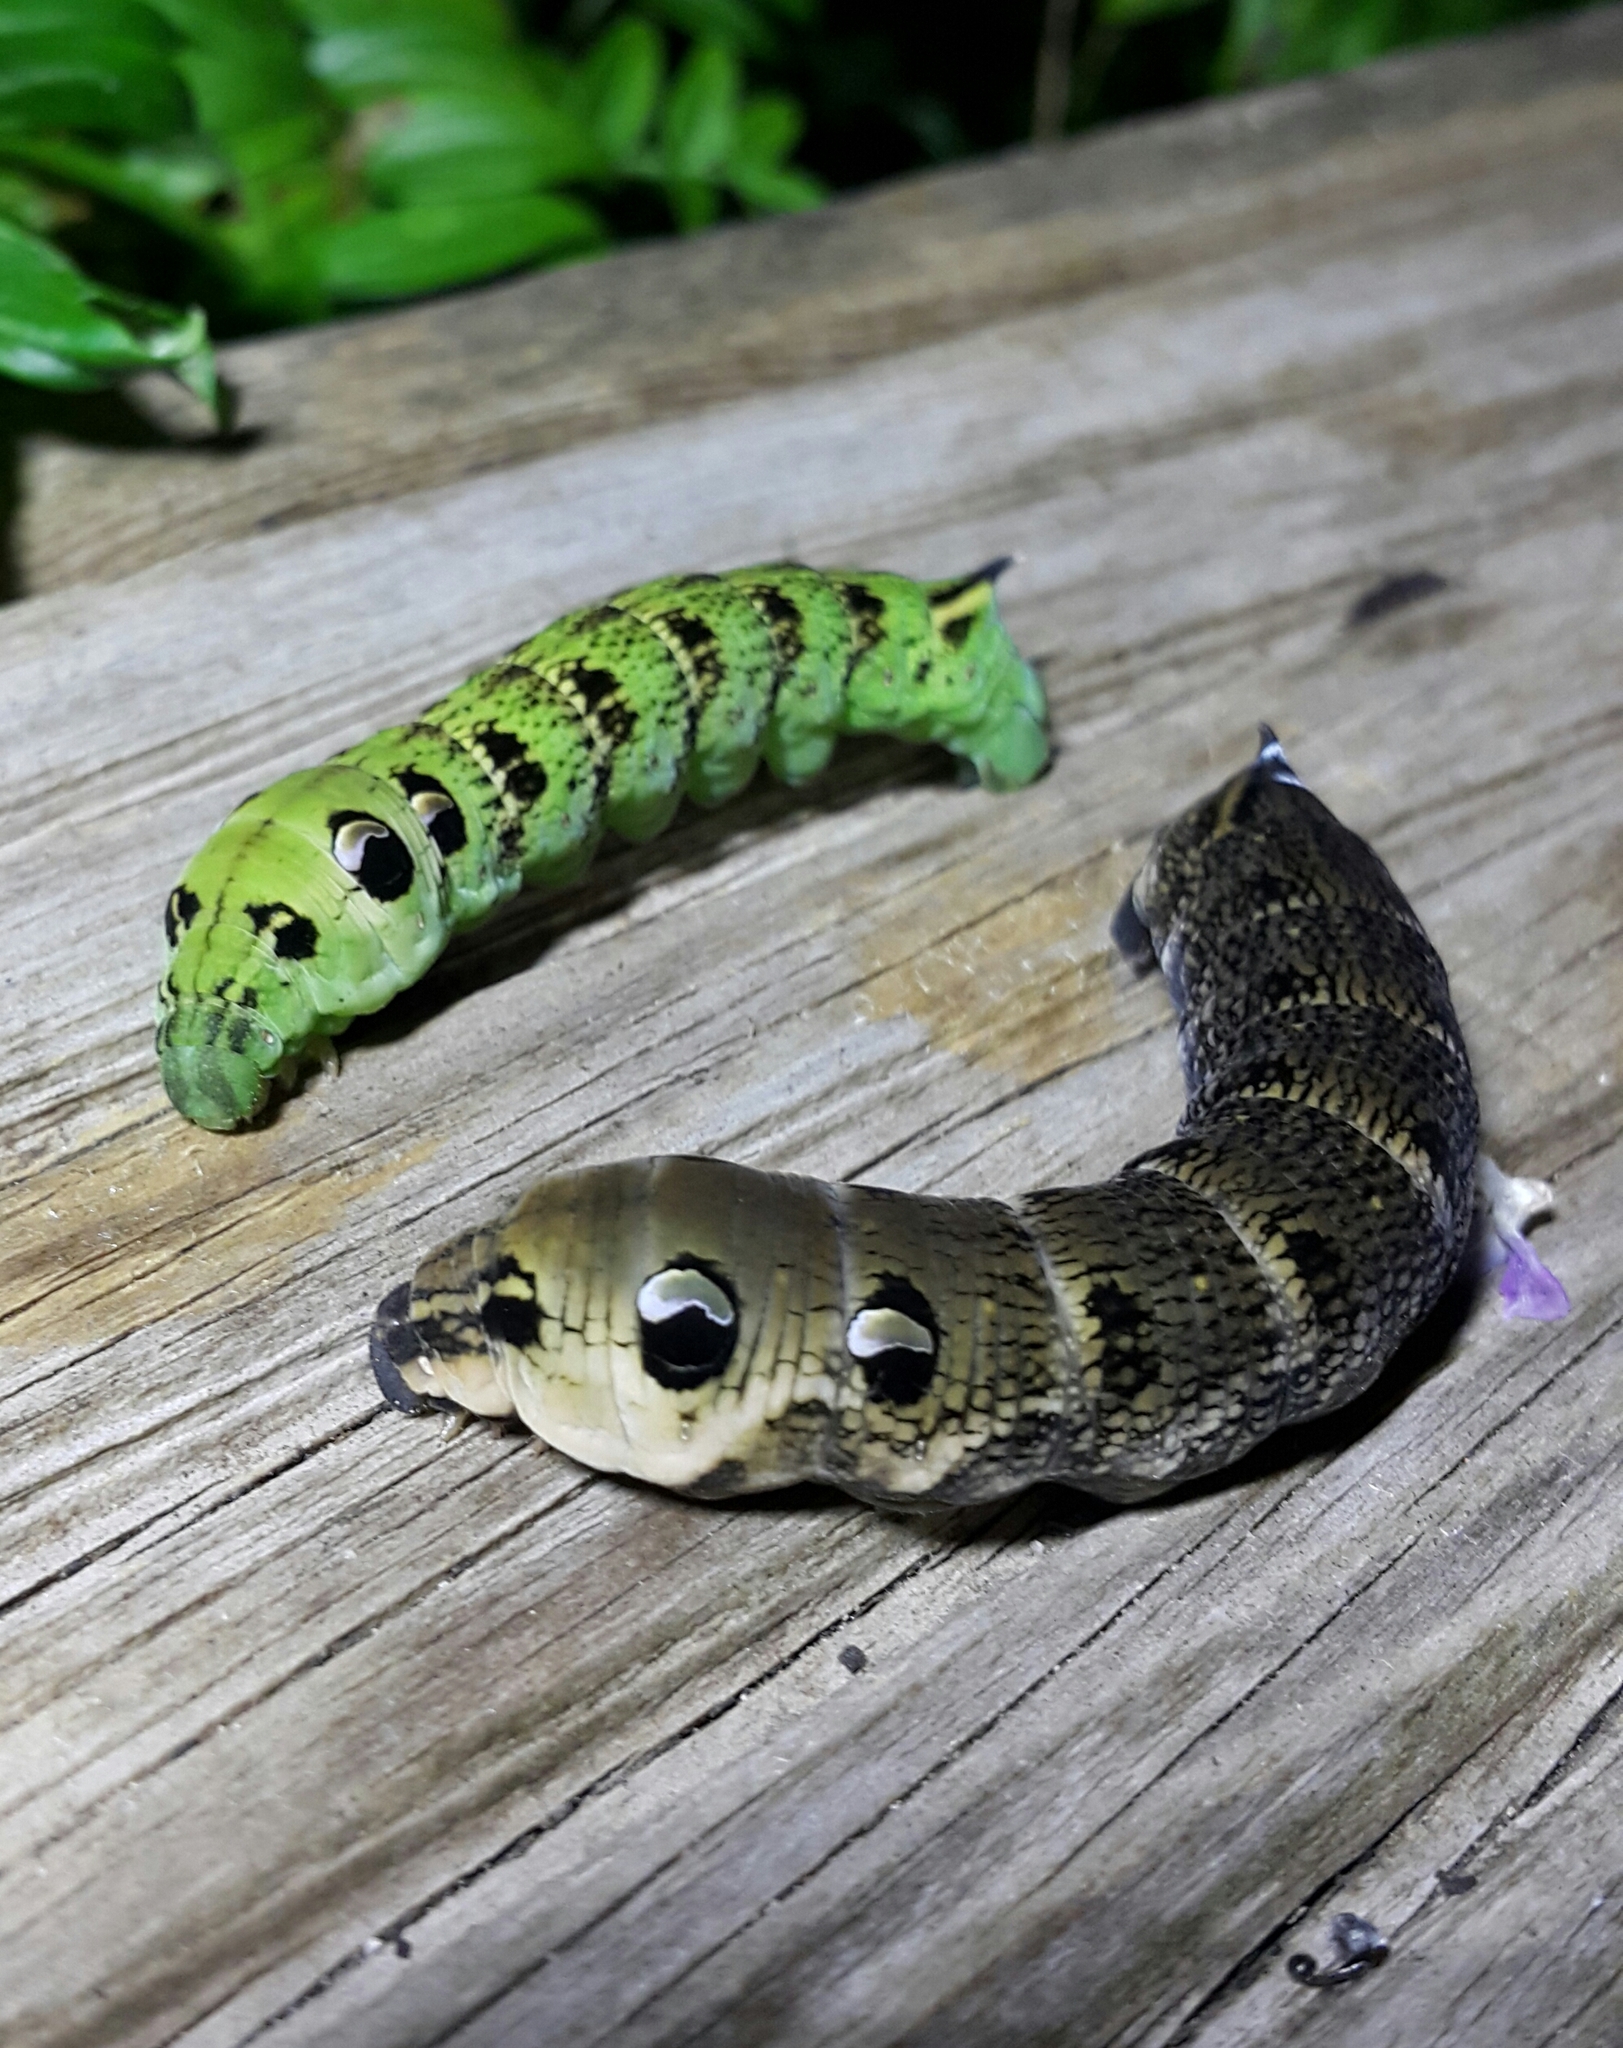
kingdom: Animalia
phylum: Arthropoda
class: Insecta
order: Lepidoptera
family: Sphingidae
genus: Deilephila
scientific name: Deilephila elpenor
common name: Elephant hawk-moth
